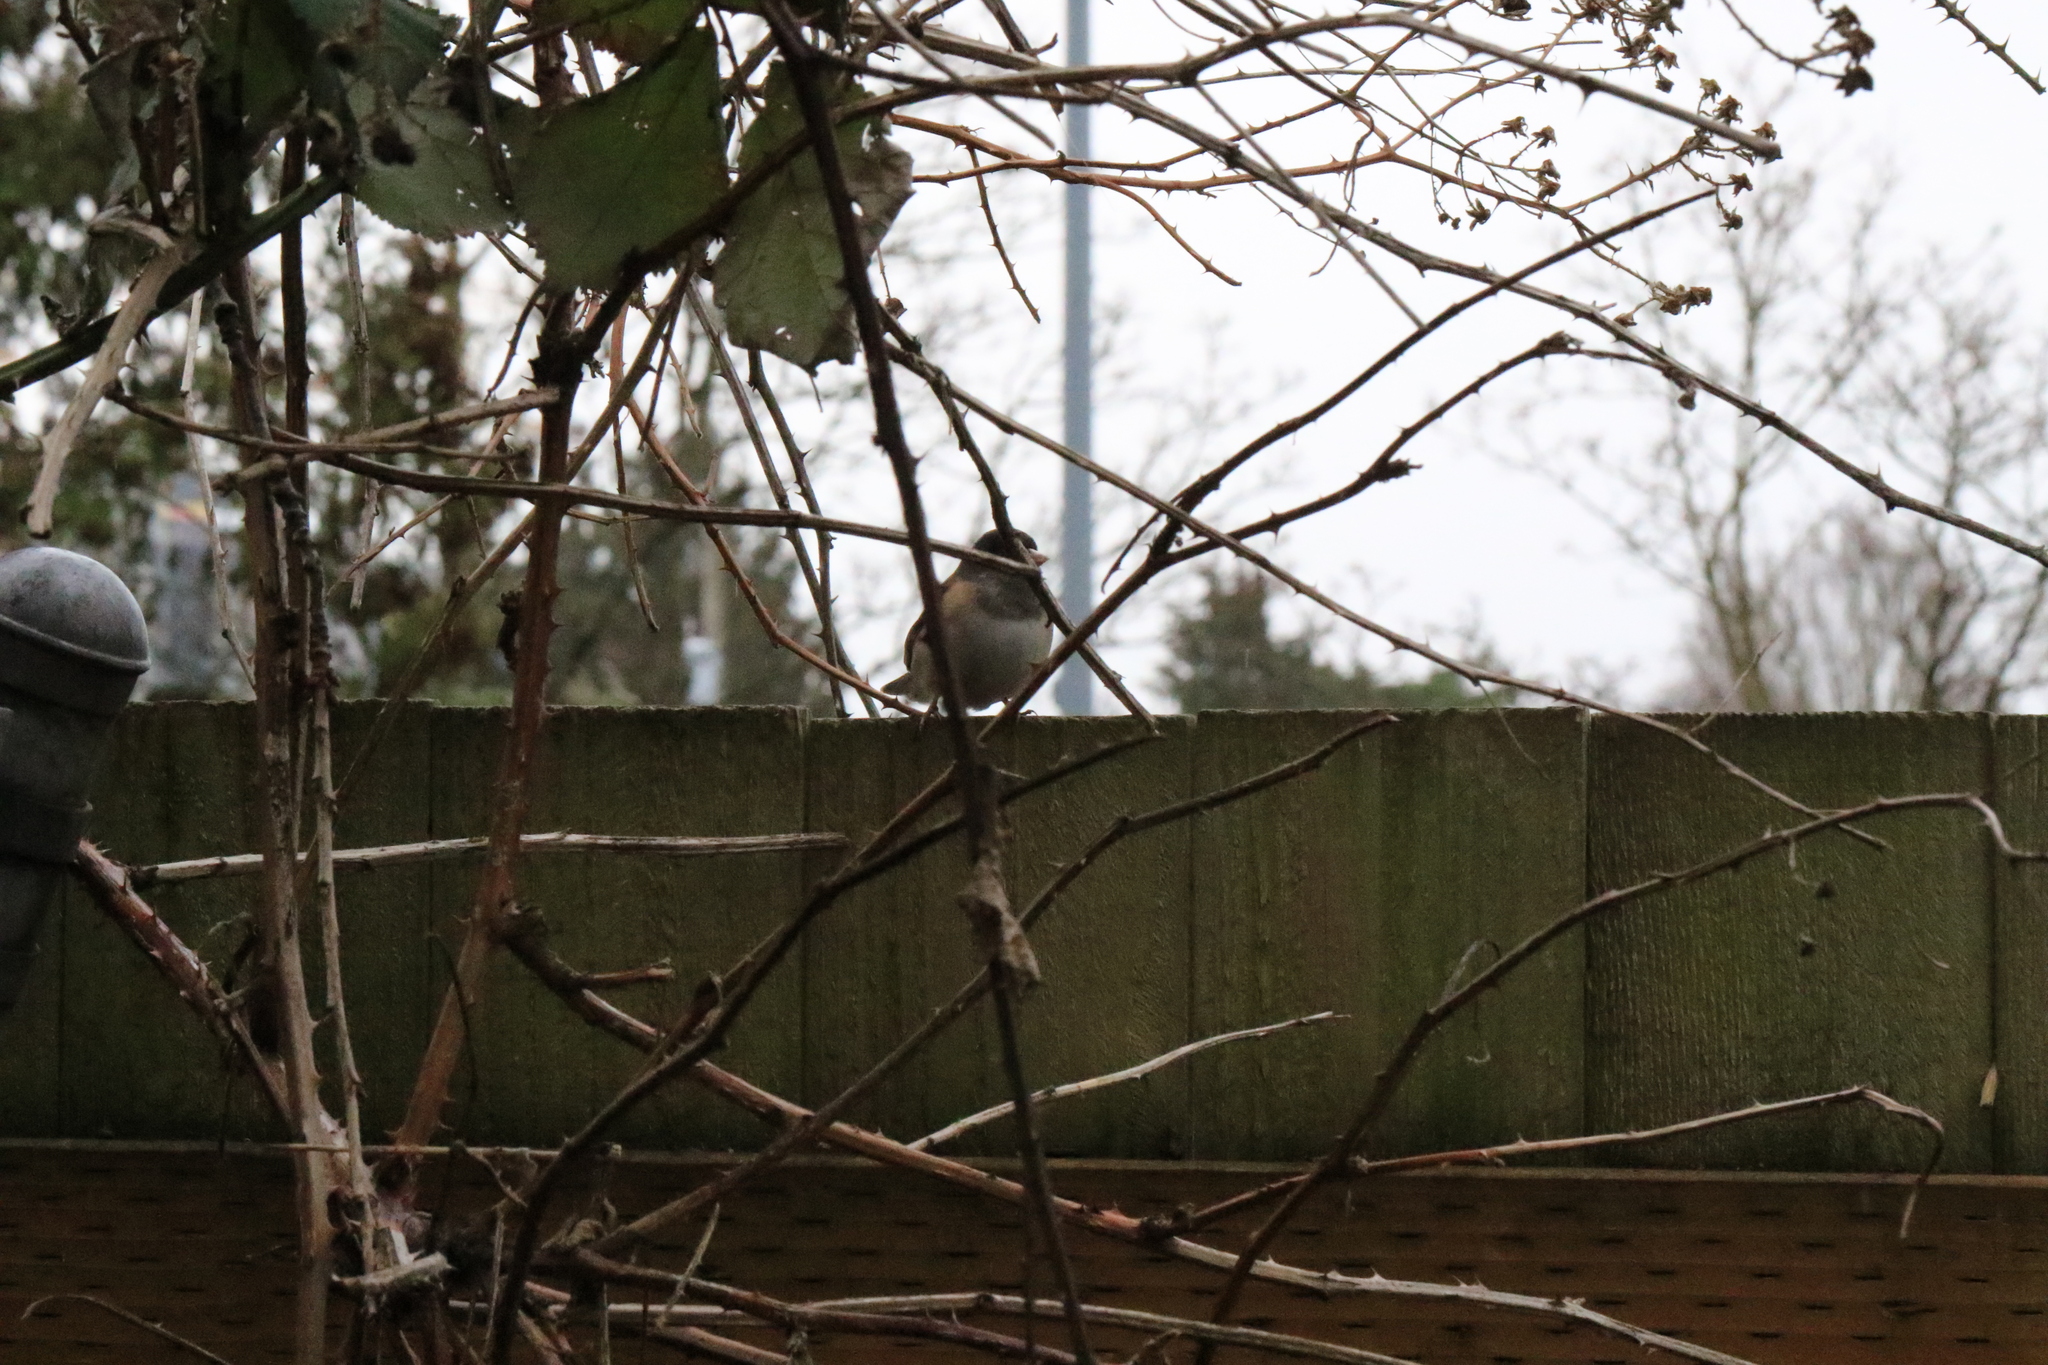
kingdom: Animalia
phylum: Chordata
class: Aves
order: Passeriformes
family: Passerellidae
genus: Junco
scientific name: Junco hyemalis
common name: Dark-eyed junco
